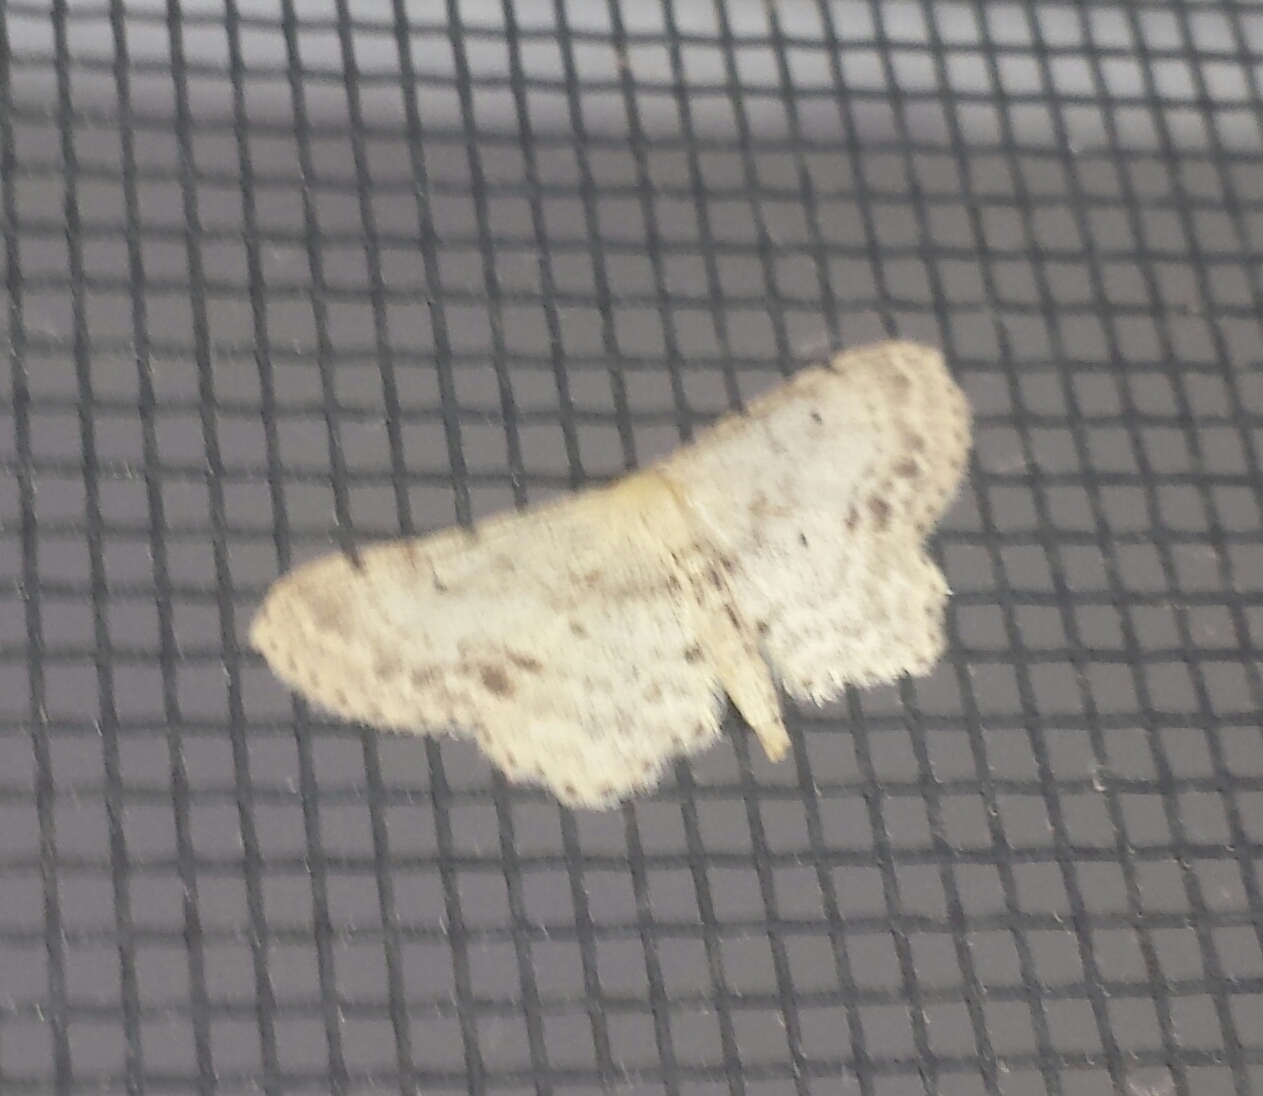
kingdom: Animalia
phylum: Arthropoda
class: Insecta
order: Lepidoptera
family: Geometridae
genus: Idaea
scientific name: Idaea dimidiata
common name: Single-dotted wave
